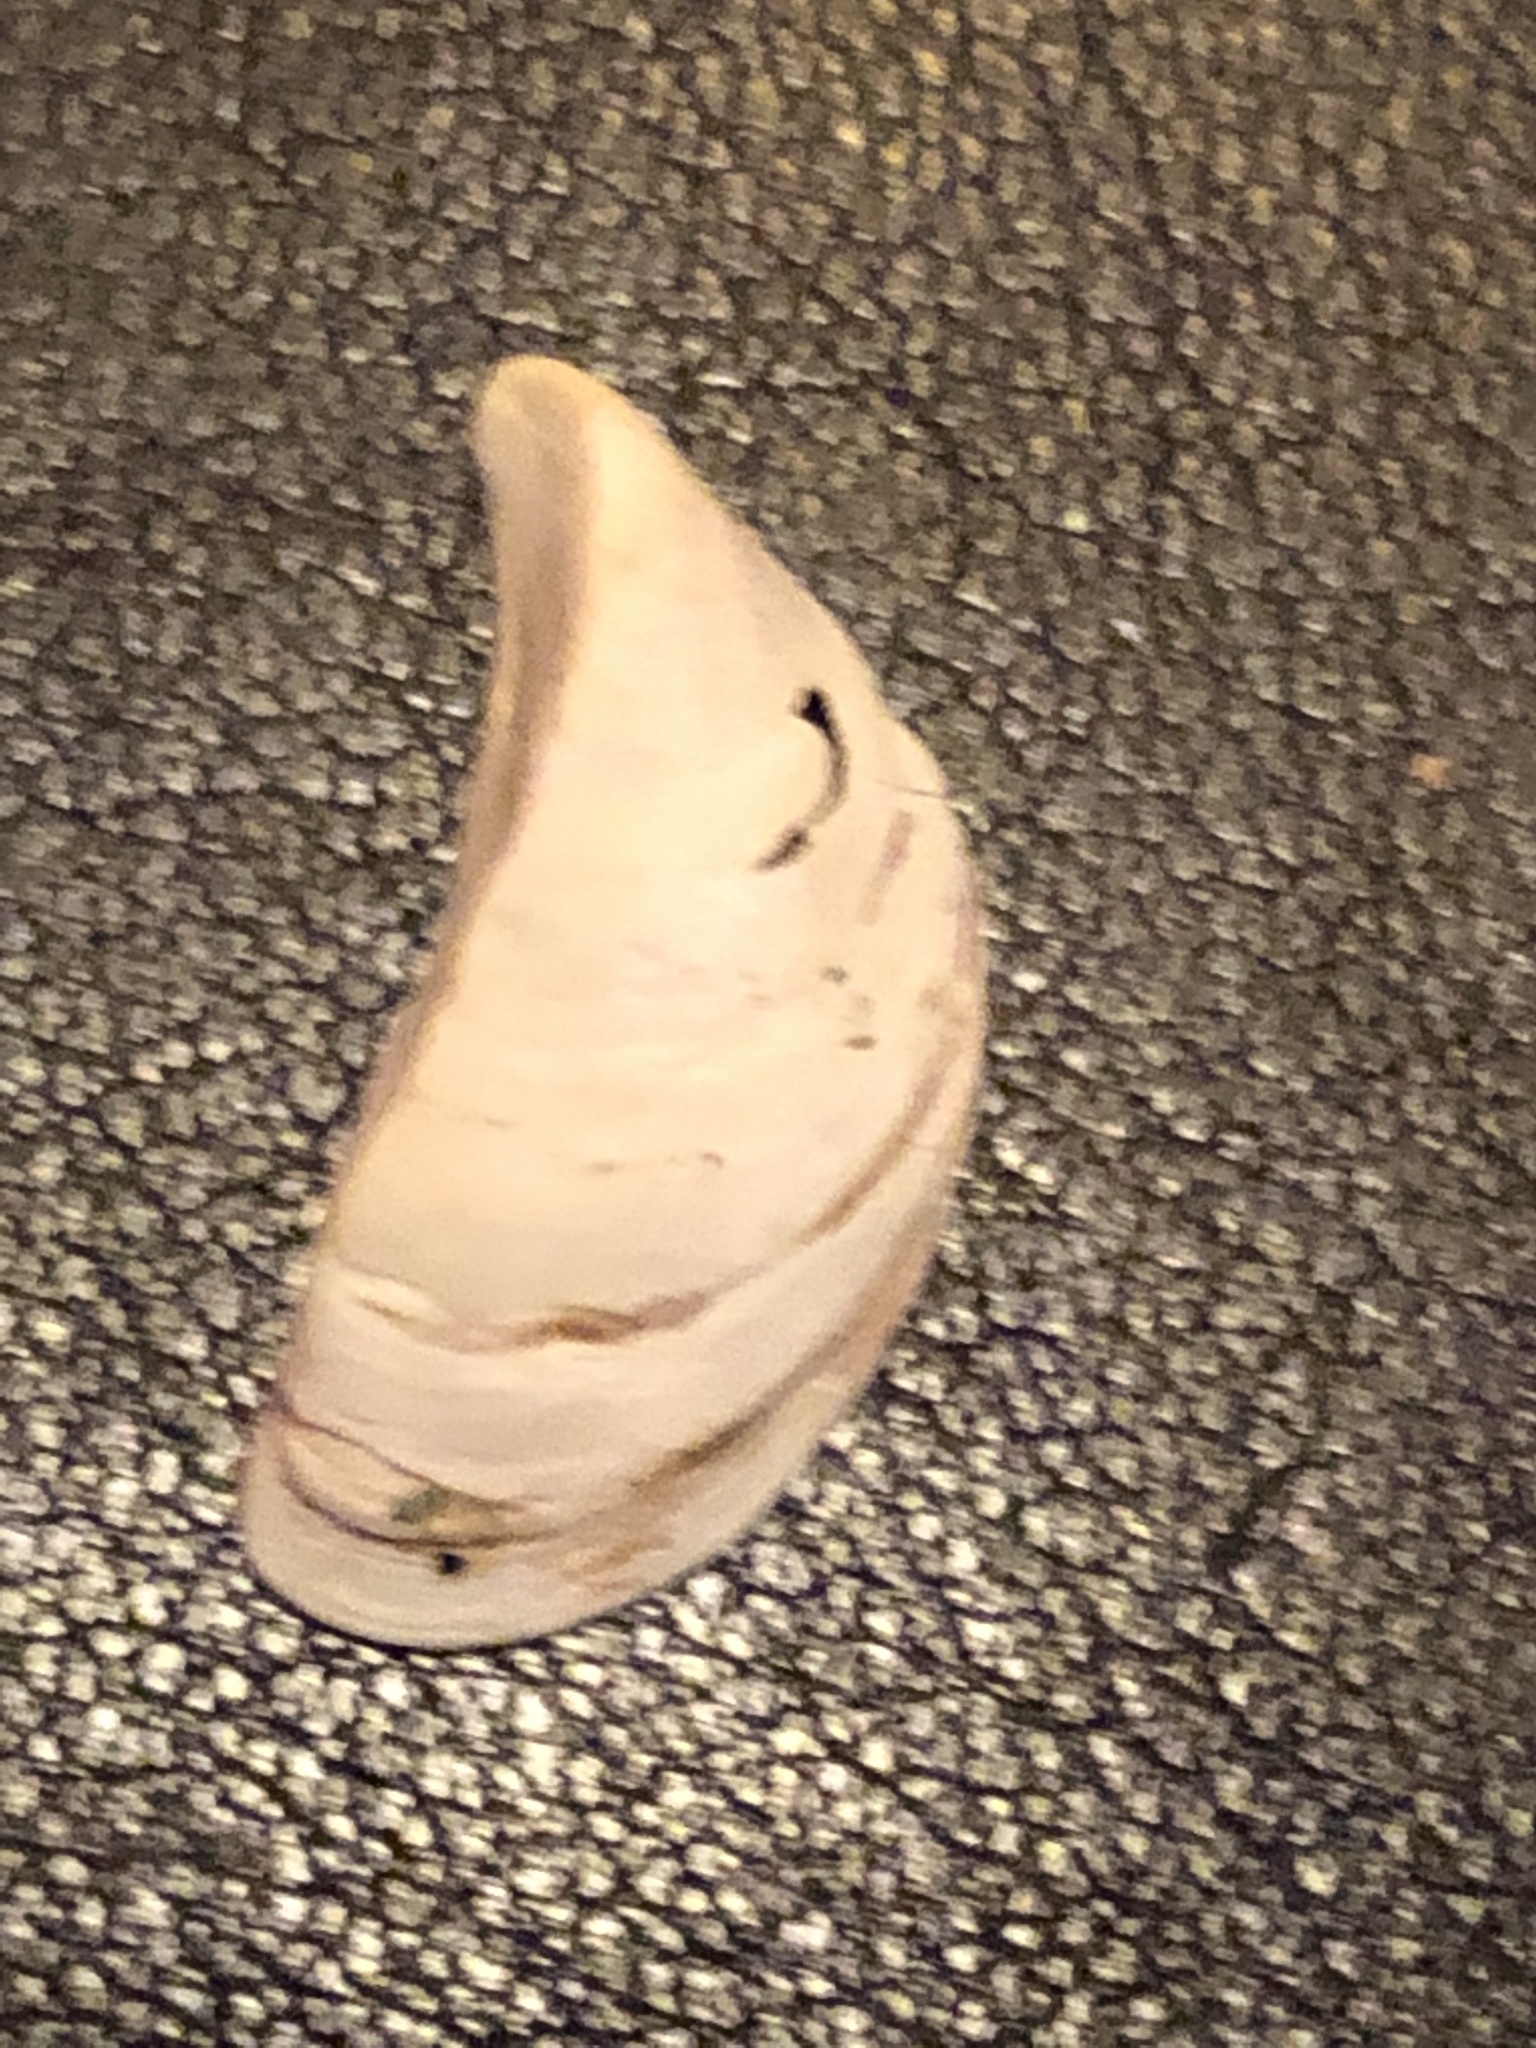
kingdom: Animalia
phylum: Mollusca
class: Bivalvia
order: Myida
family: Dreissenidae
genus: Dreissena
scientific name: Dreissena polymorpha
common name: Zebra mussel
